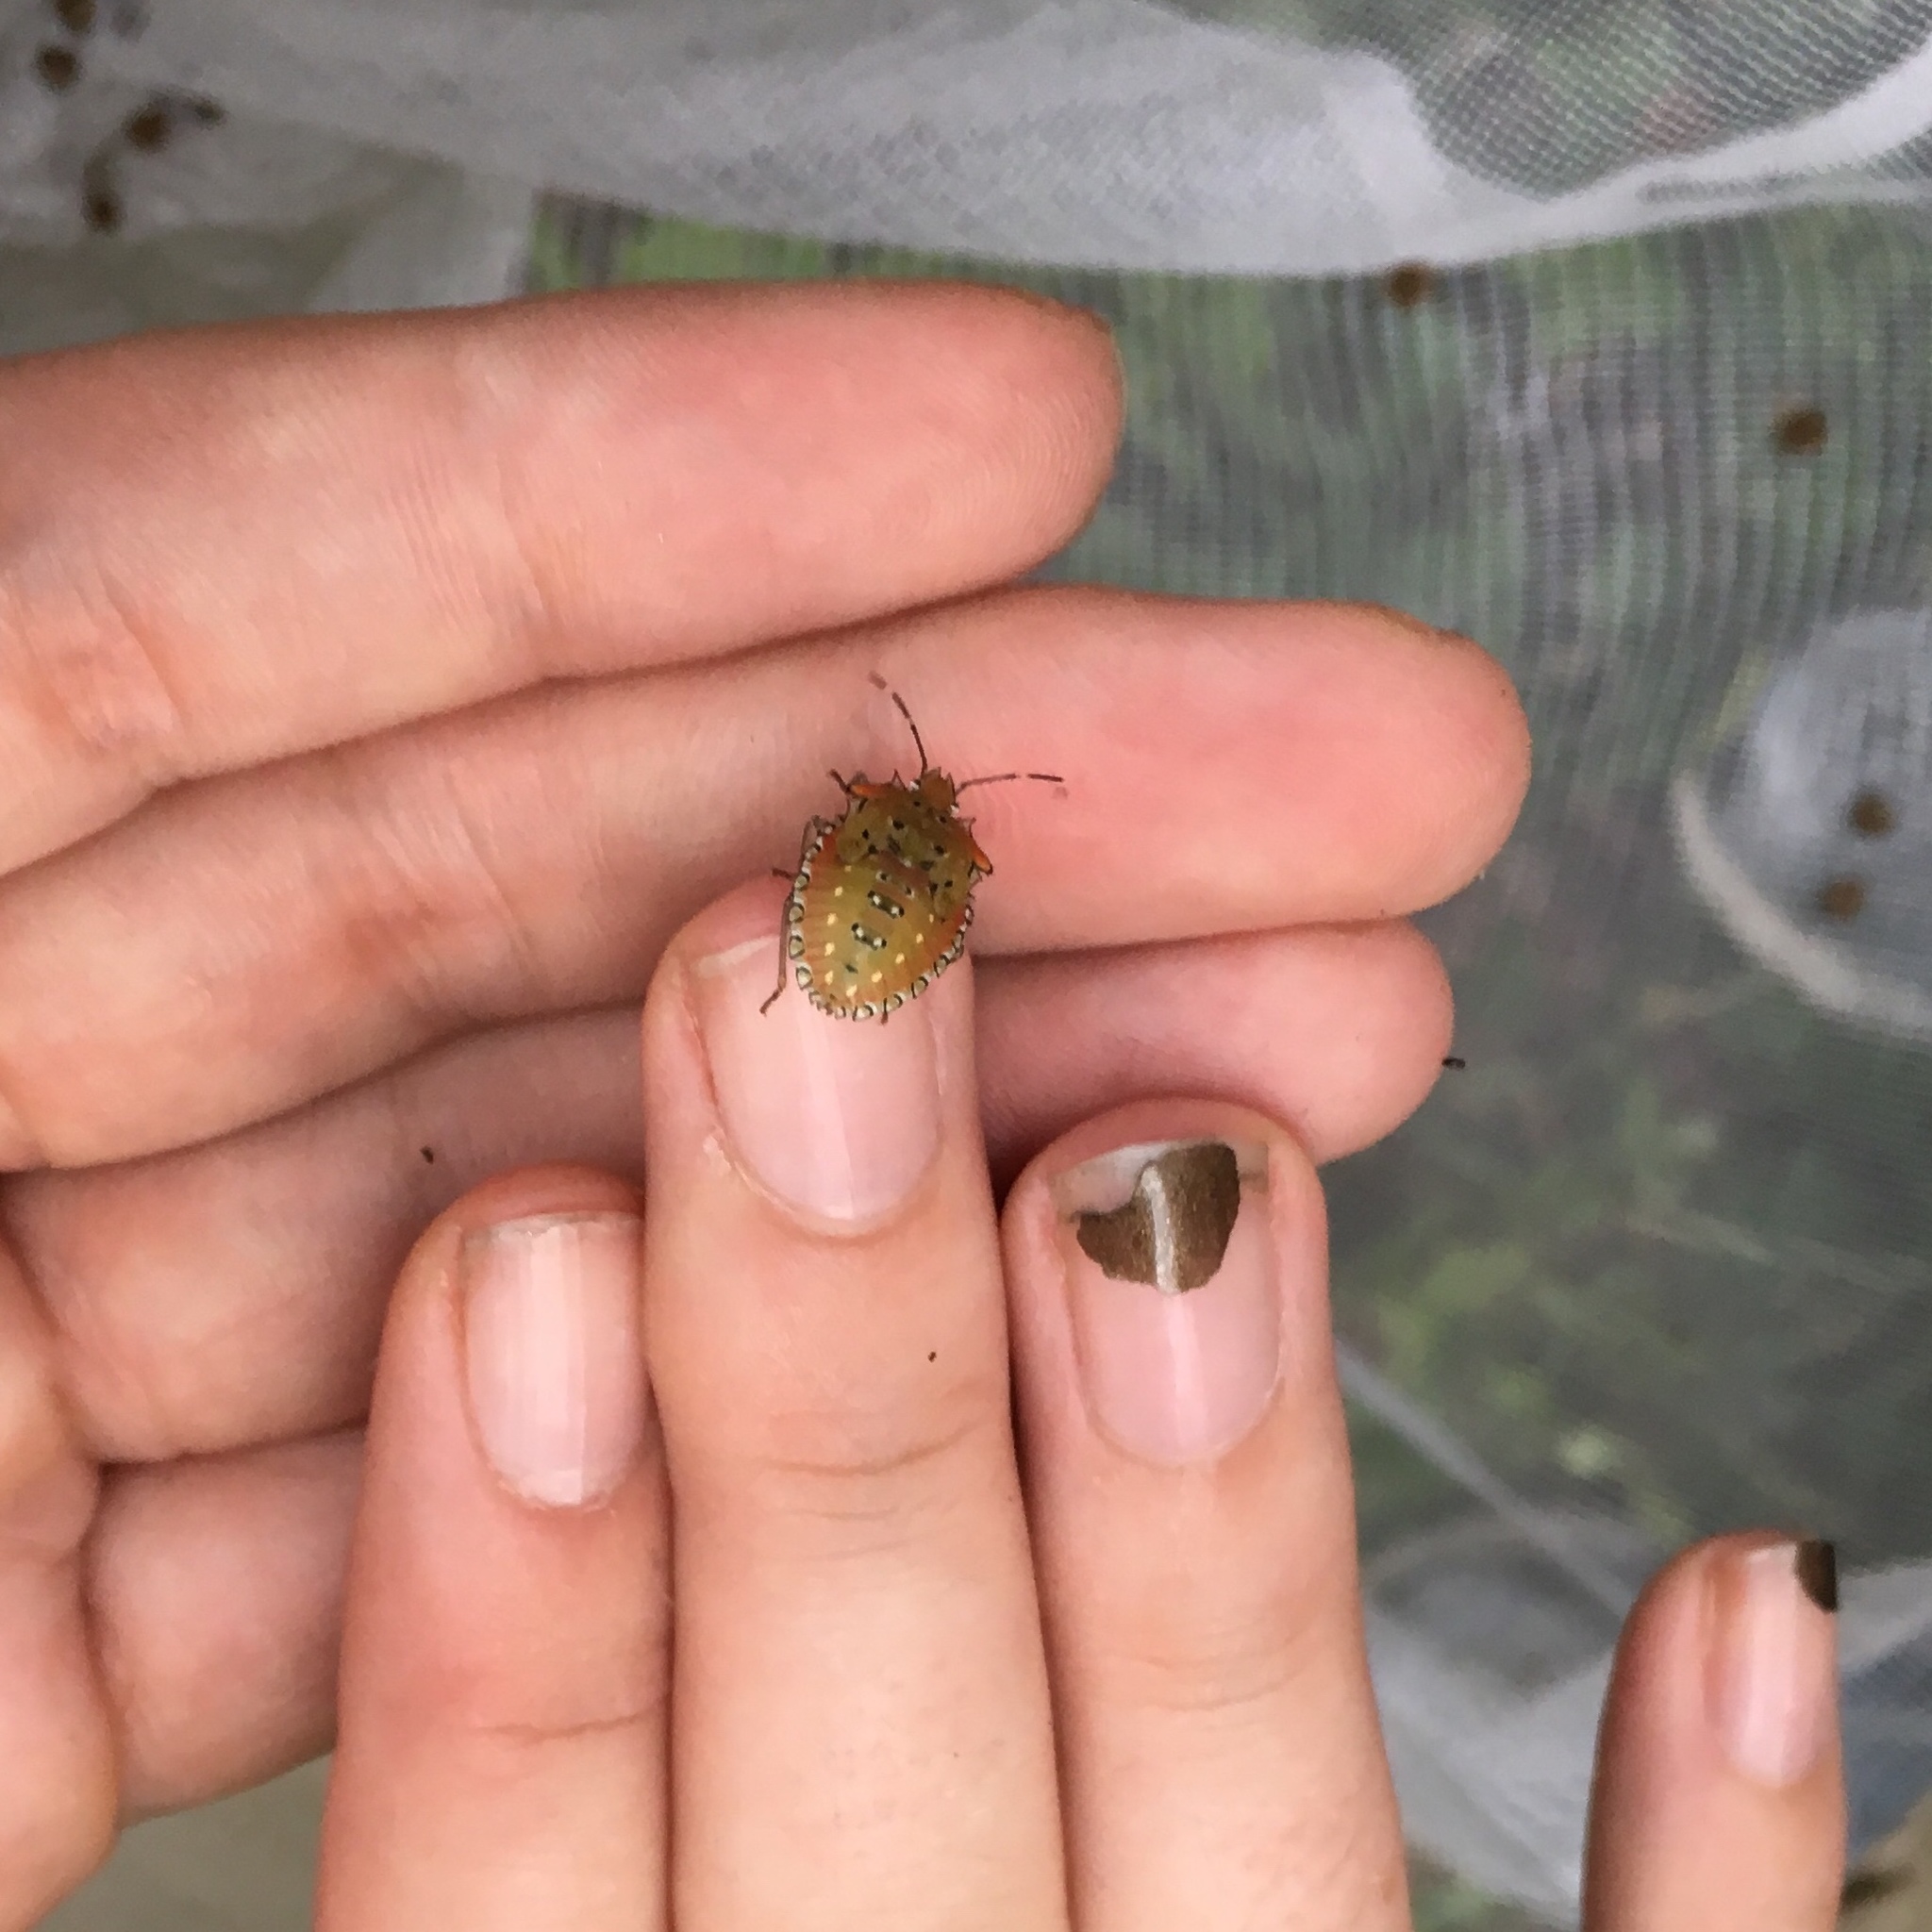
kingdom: Animalia
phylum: Arthropoda
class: Insecta
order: Hemiptera
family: Pentatomidae
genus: Arvelius
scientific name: Arvelius albopunctatus
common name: Tomato stink bug
